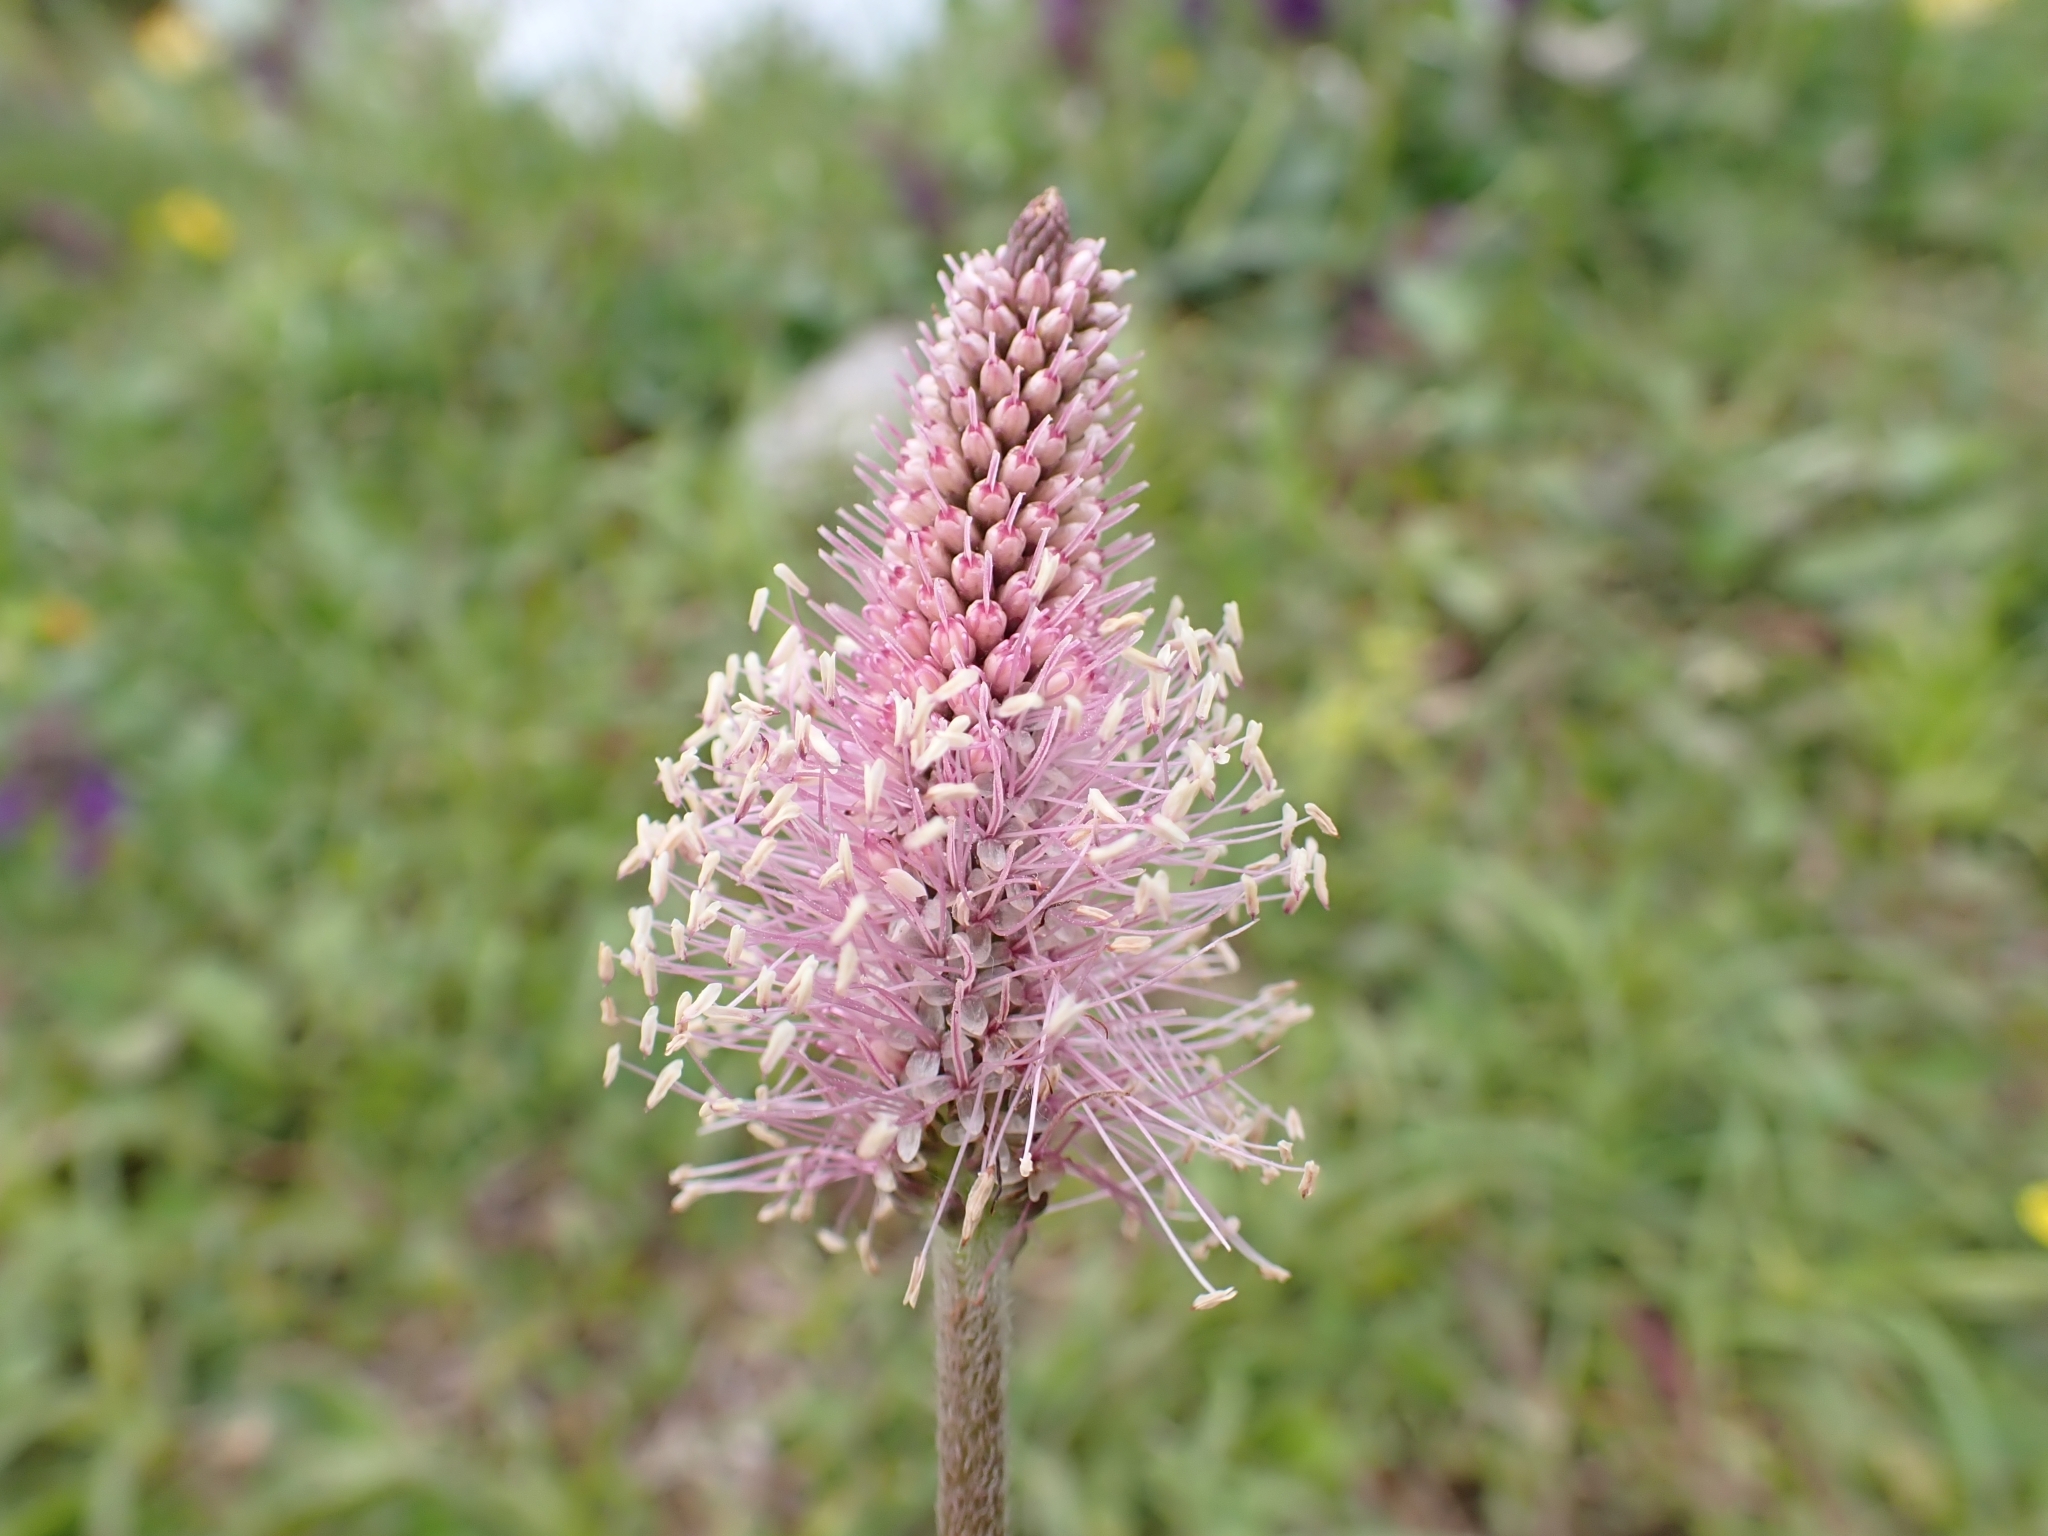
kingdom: Plantae
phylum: Tracheophyta
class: Magnoliopsida
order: Lamiales
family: Plantaginaceae
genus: Plantago
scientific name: Plantago media
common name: Hoary plantain
